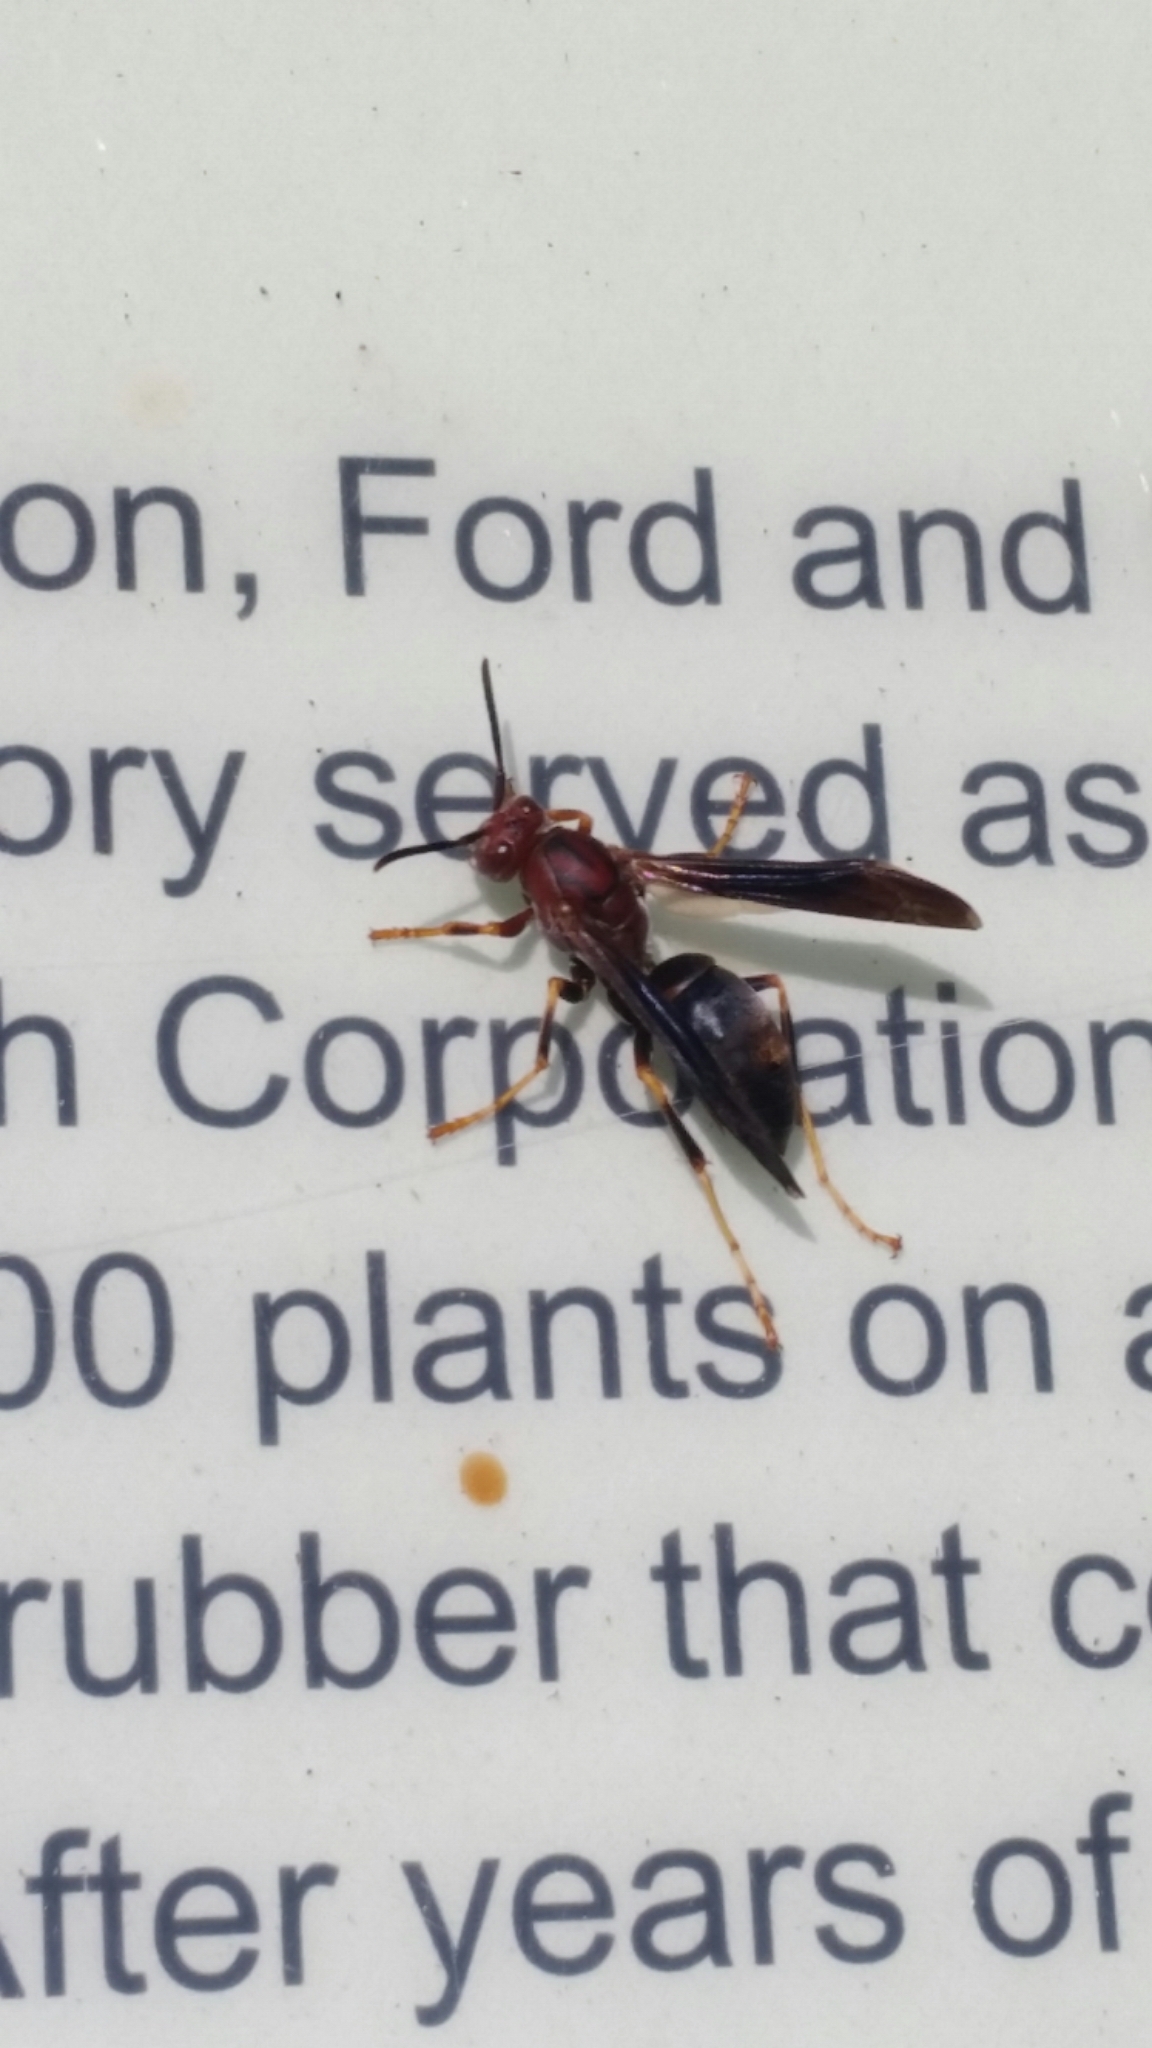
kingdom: Animalia
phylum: Arthropoda
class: Insecta
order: Hymenoptera
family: Eumenidae
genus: Polistes
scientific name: Polistes metricus
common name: Metric paper wasp
